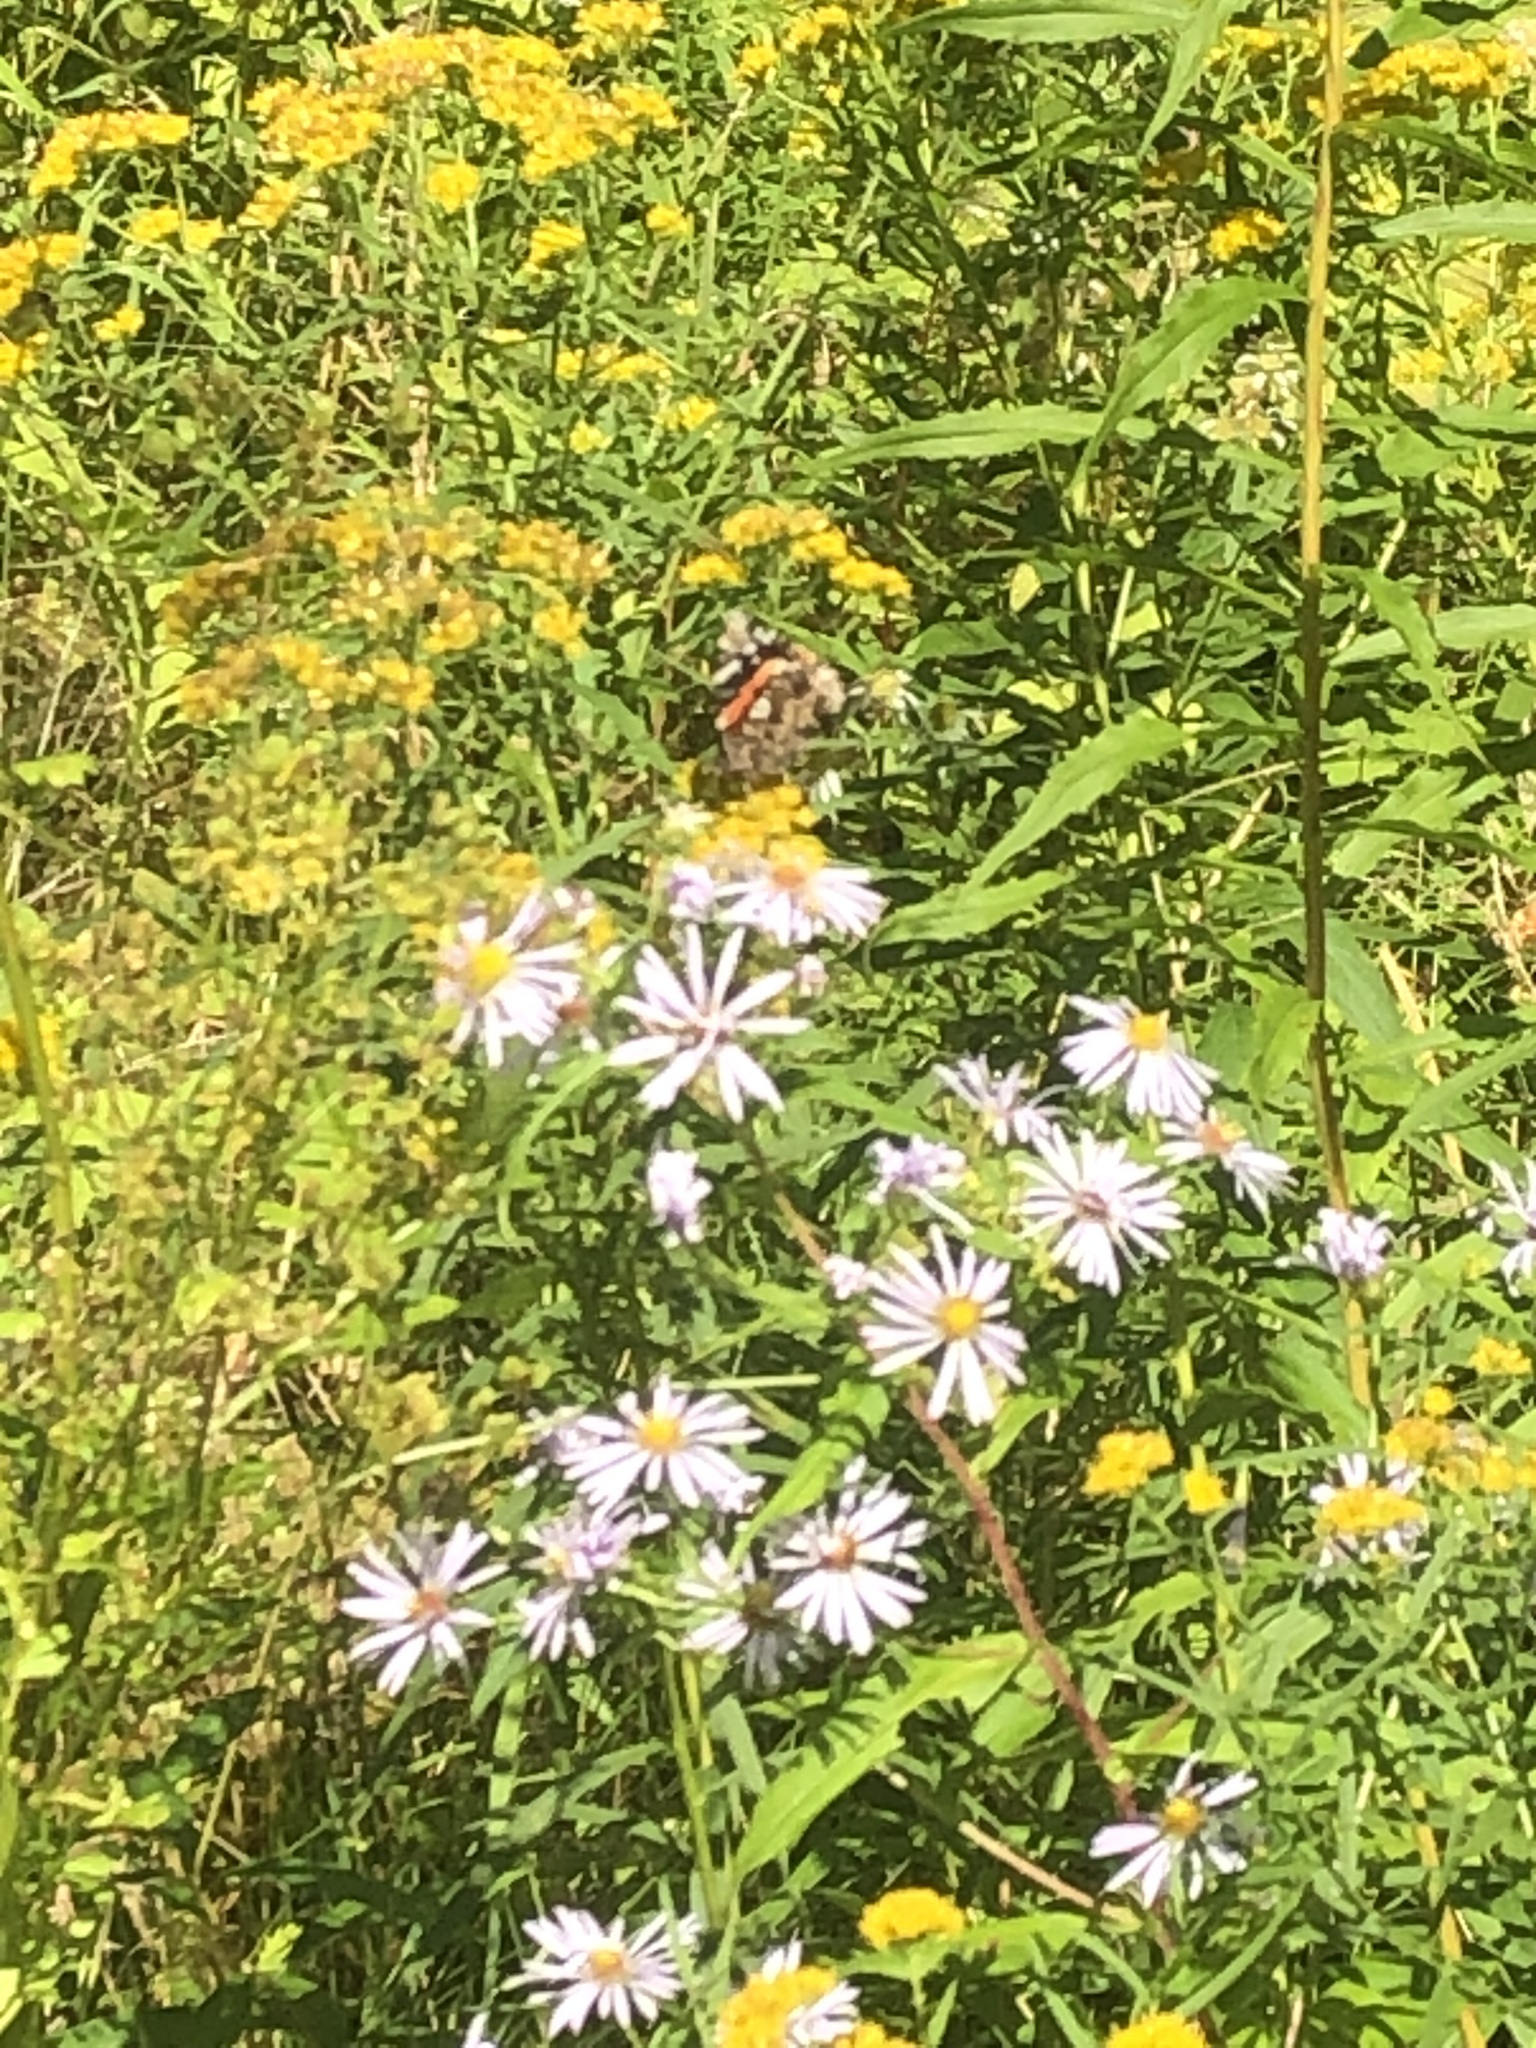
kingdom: Animalia
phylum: Arthropoda
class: Insecta
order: Lepidoptera
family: Nymphalidae
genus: Vanessa
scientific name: Vanessa atalanta
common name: Red admiral
